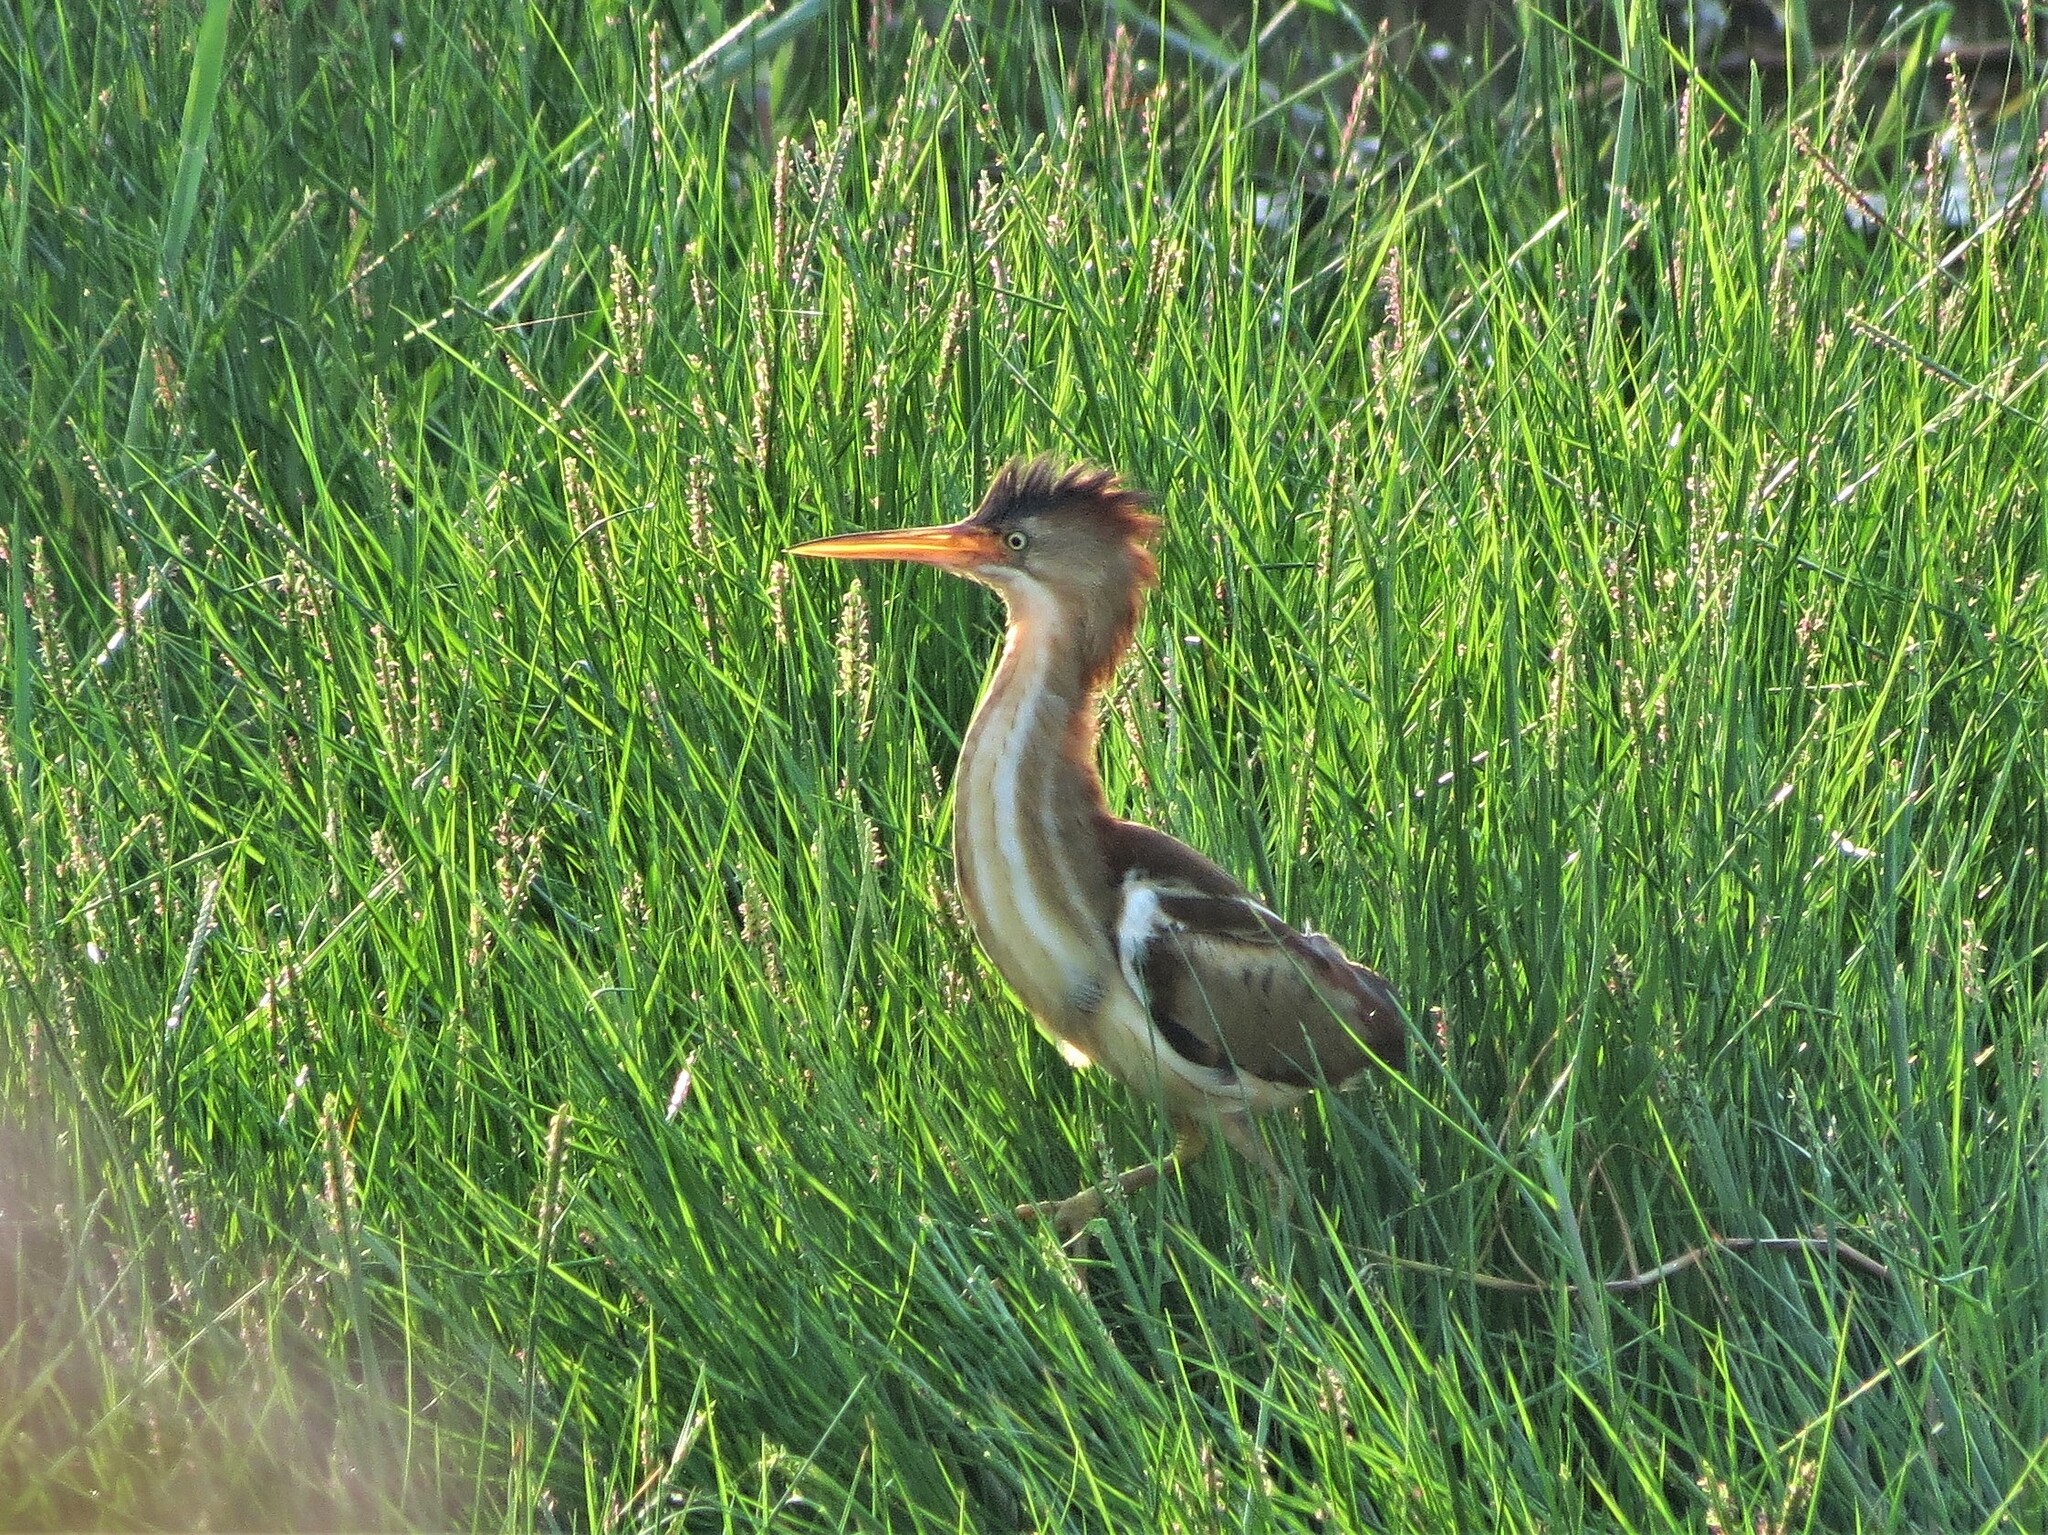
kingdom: Animalia
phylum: Chordata
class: Aves
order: Pelecaniformes
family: Ardeidae
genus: Ixobrychus
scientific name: Ixobrychus exilis
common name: Least bittern
